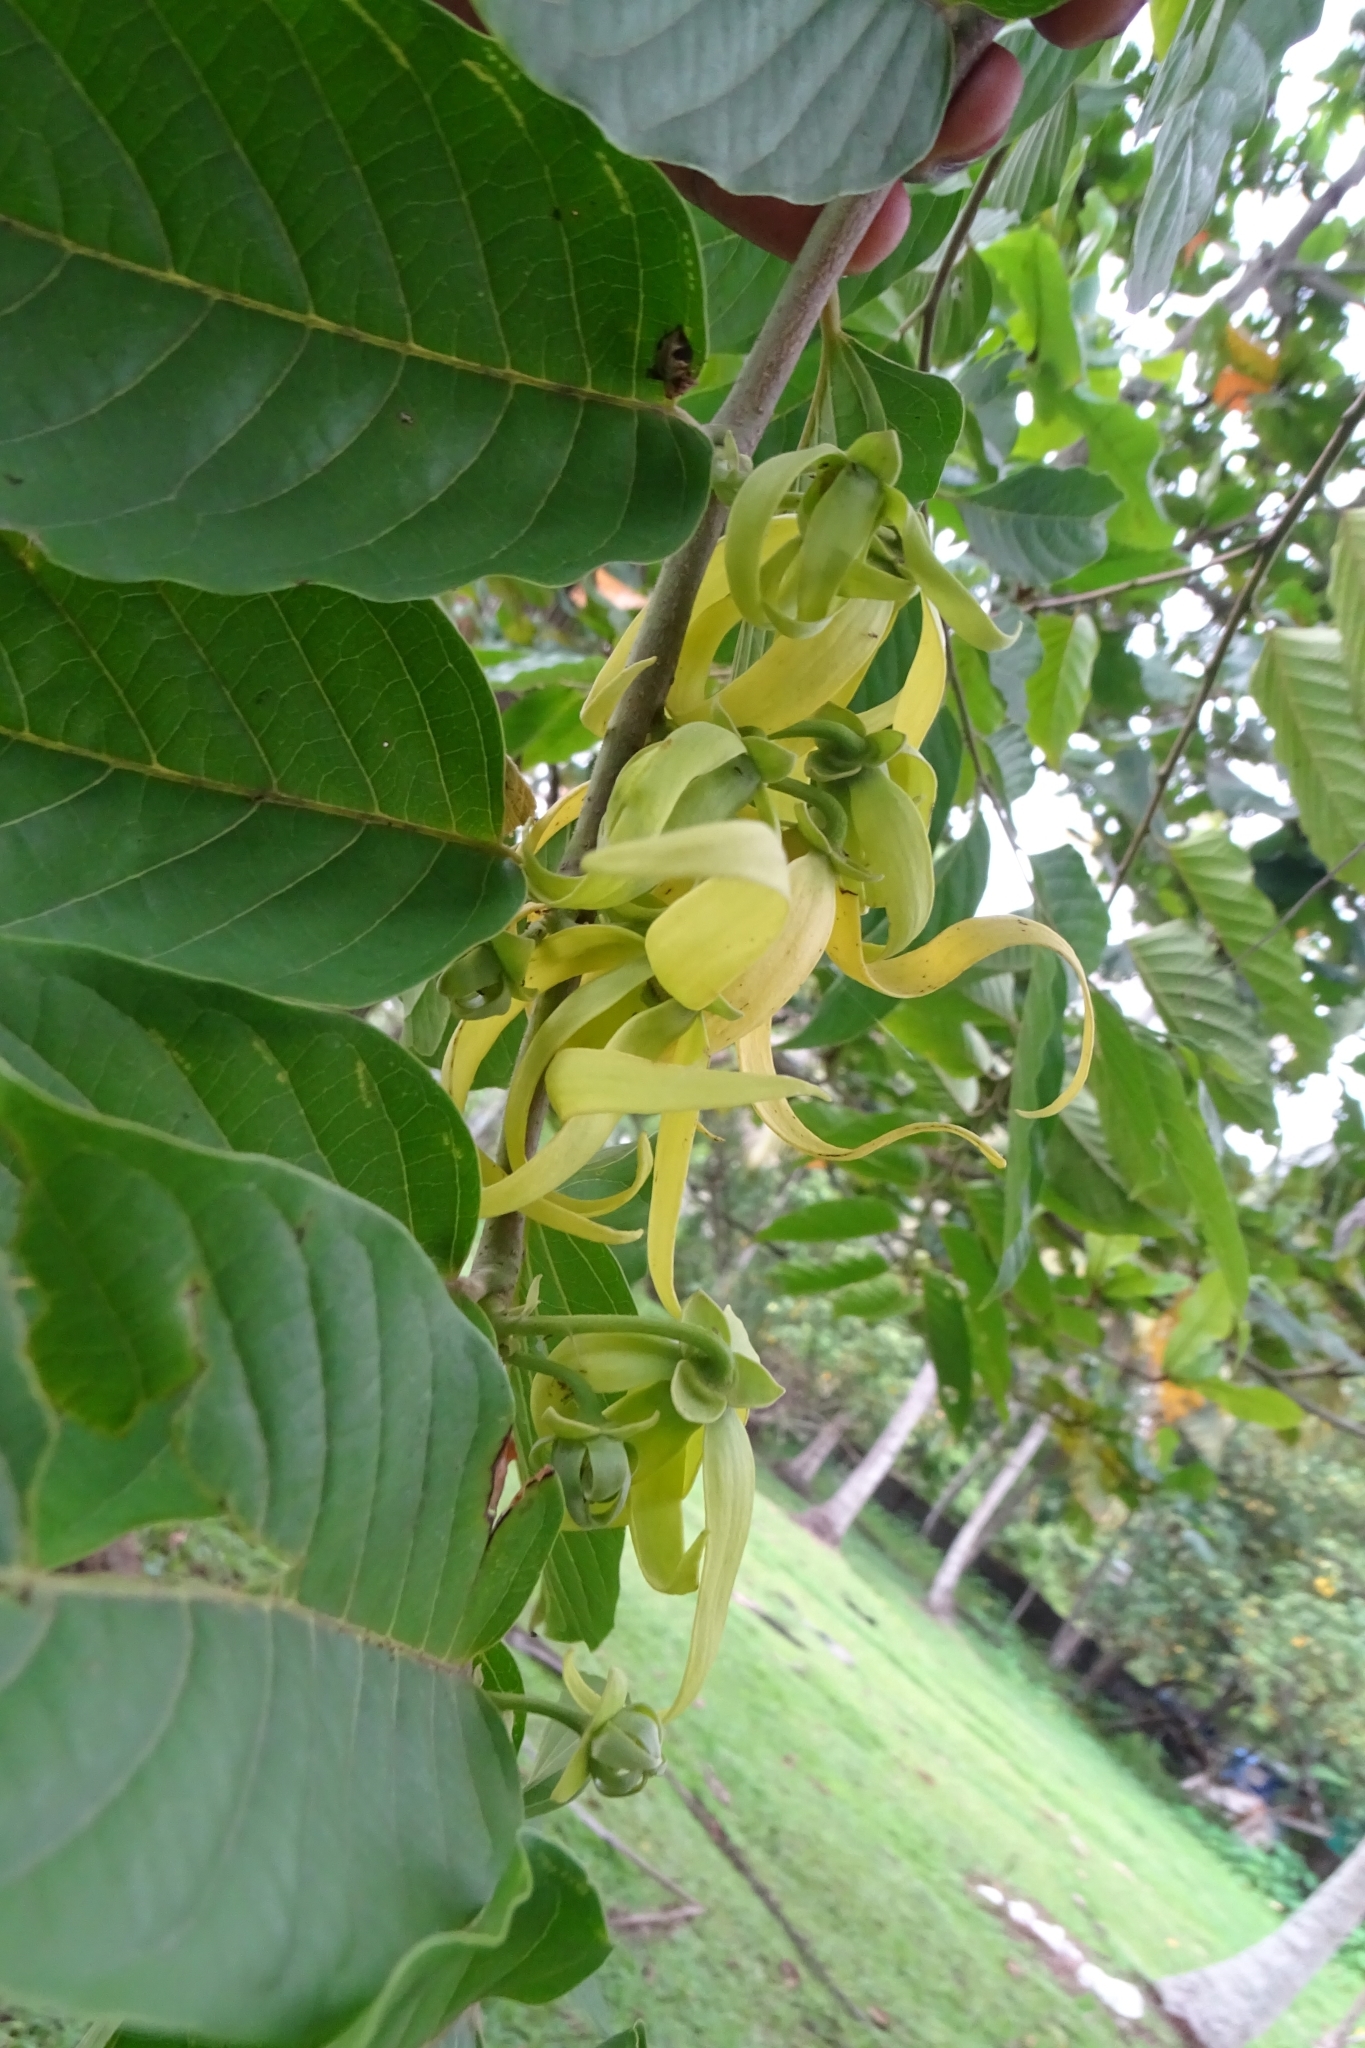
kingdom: Plantae
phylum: Tracheophyta
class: Magnoliopsida
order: Magnoliales
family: Annonaceae
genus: Cananga
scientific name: Cananga odorata
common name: Cananga tree
